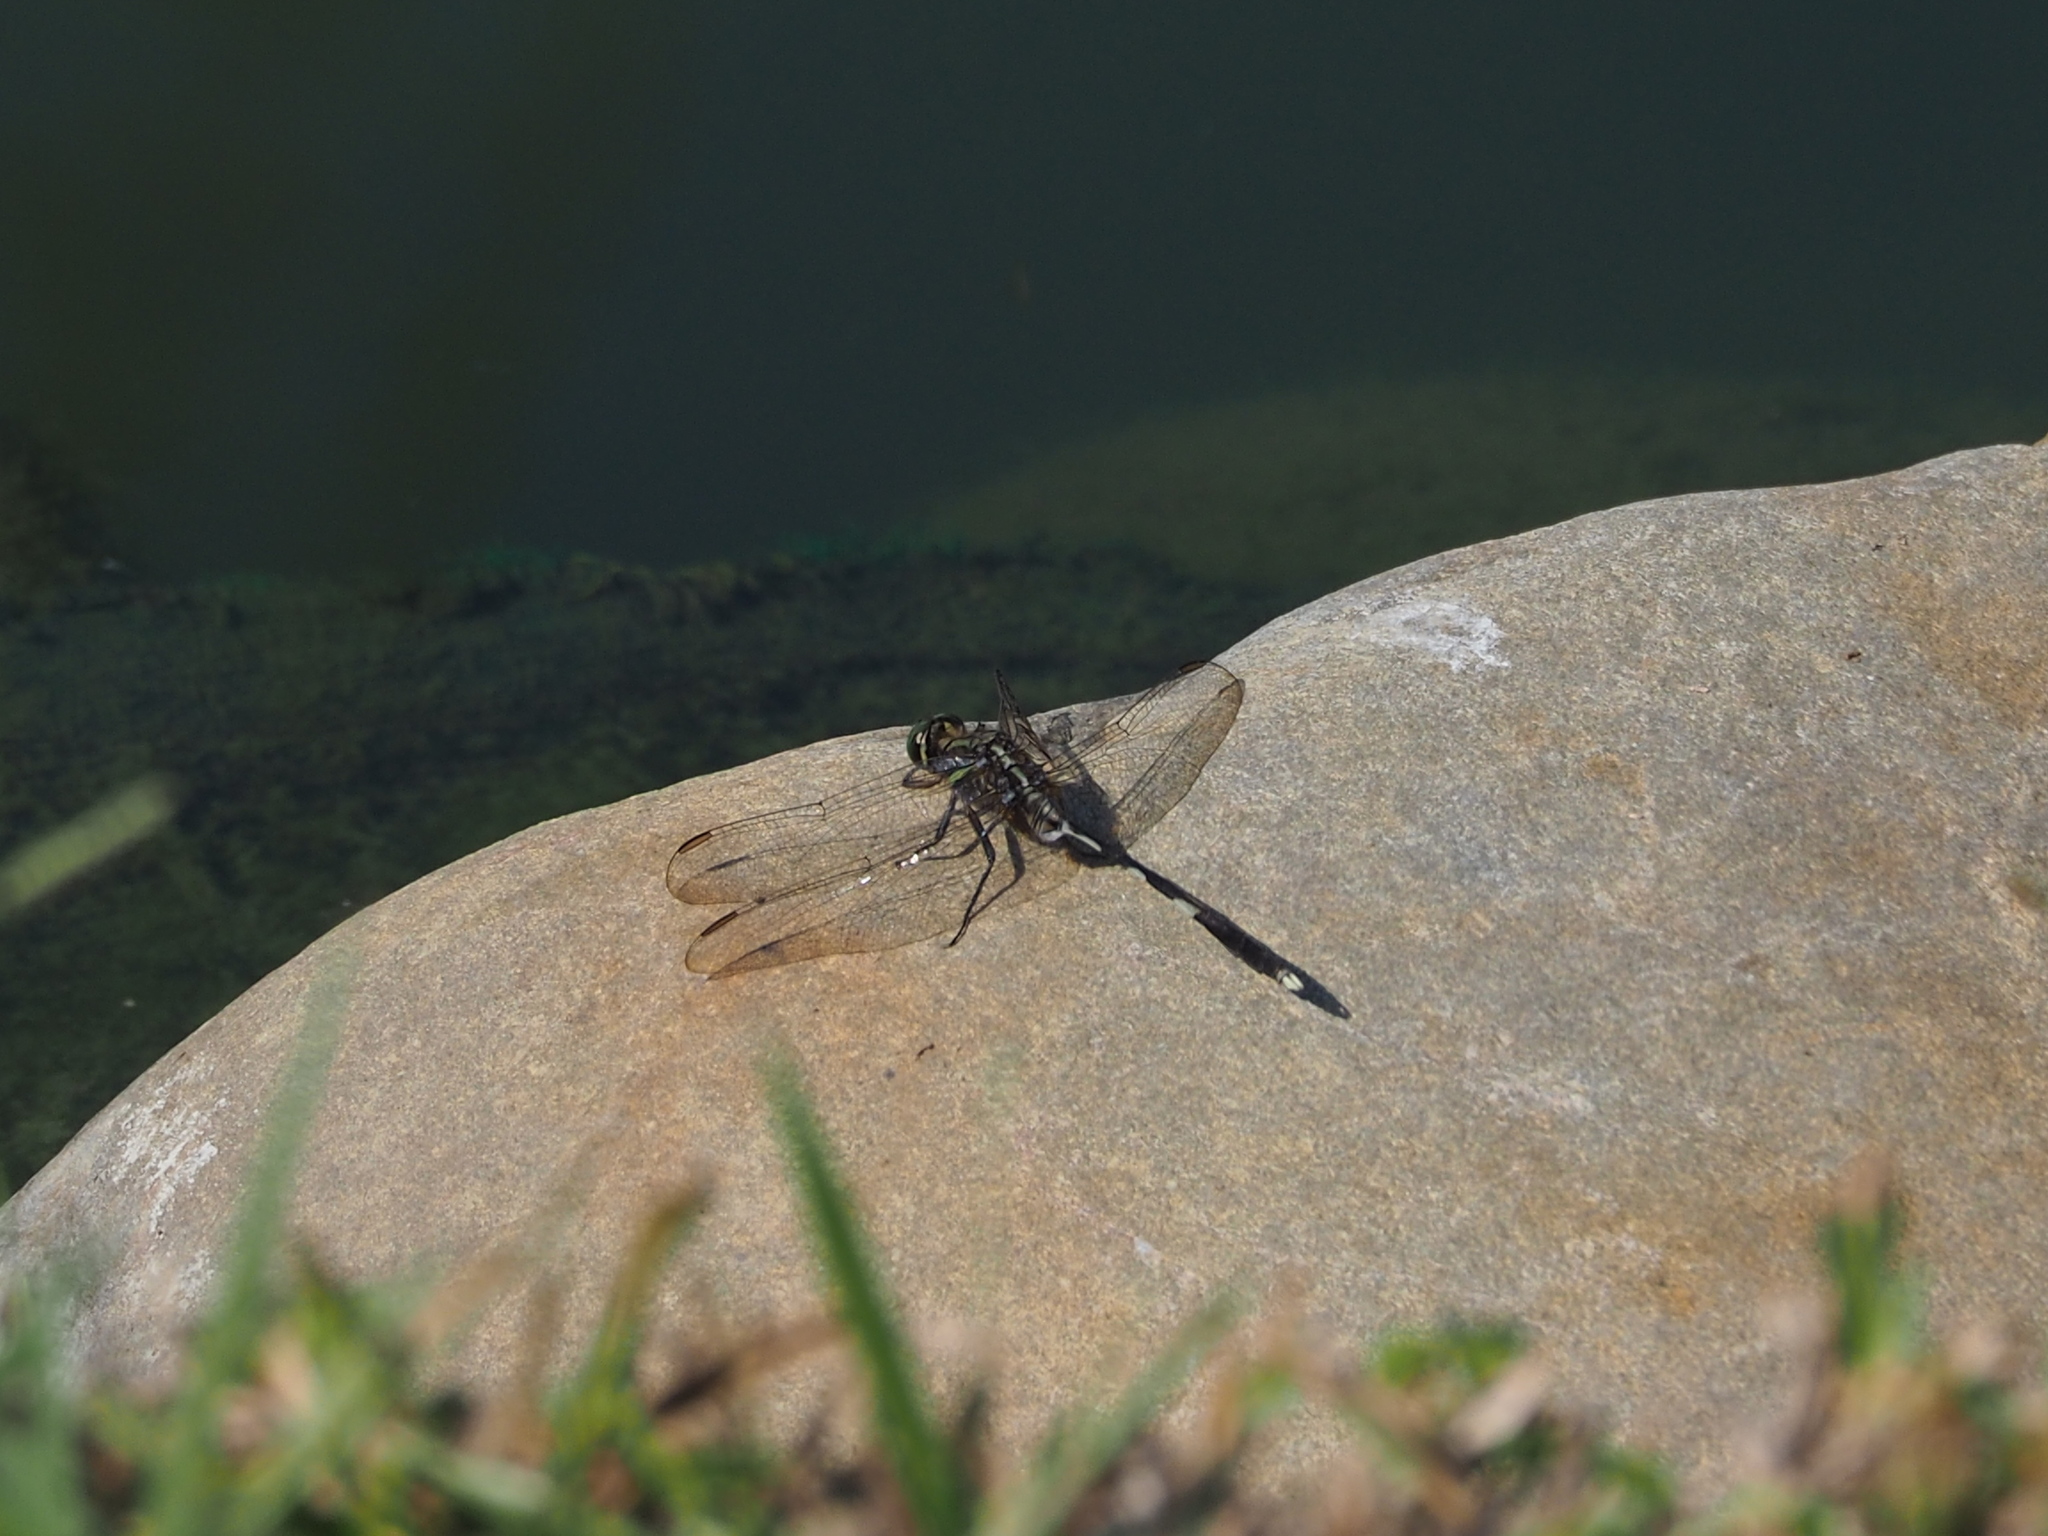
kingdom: Animalia
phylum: Arthropoda
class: Insecta
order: Odonata
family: Libellulidae
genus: Orthetrum
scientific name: Orthetrum sabina
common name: Slender skimmer
